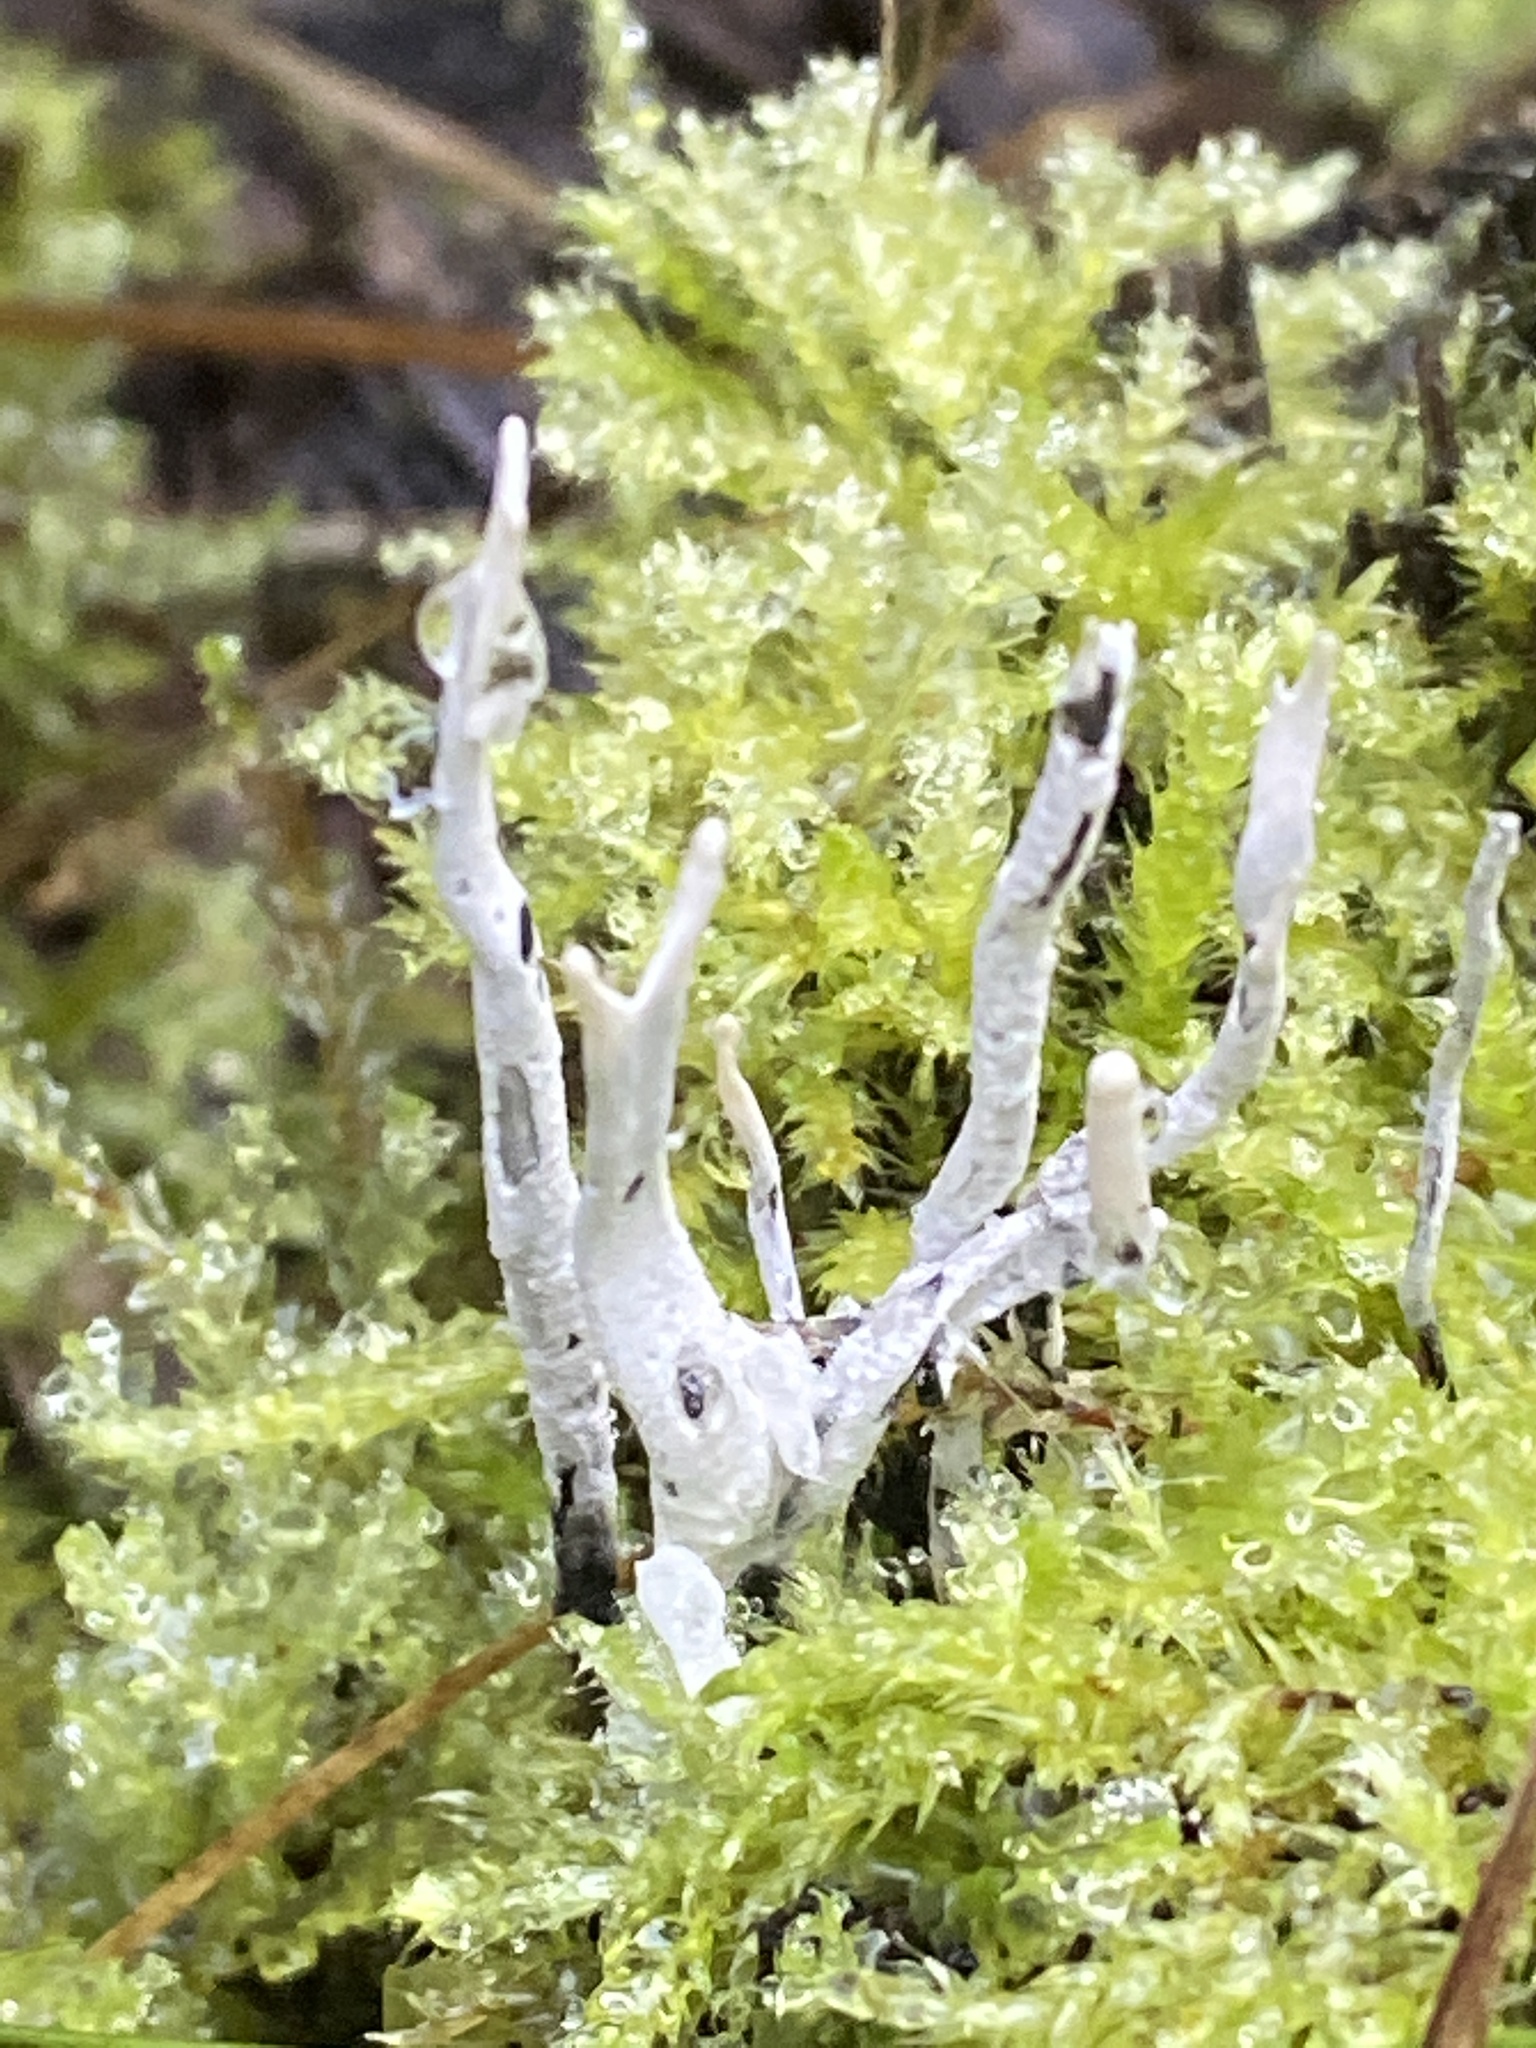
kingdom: Fungi
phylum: Ascomycota
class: Sordariomycetes
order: Xylariales
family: Xylariaceae
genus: Xylaria
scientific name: Xylaria hypoxylon
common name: Candle-snuff fungus
